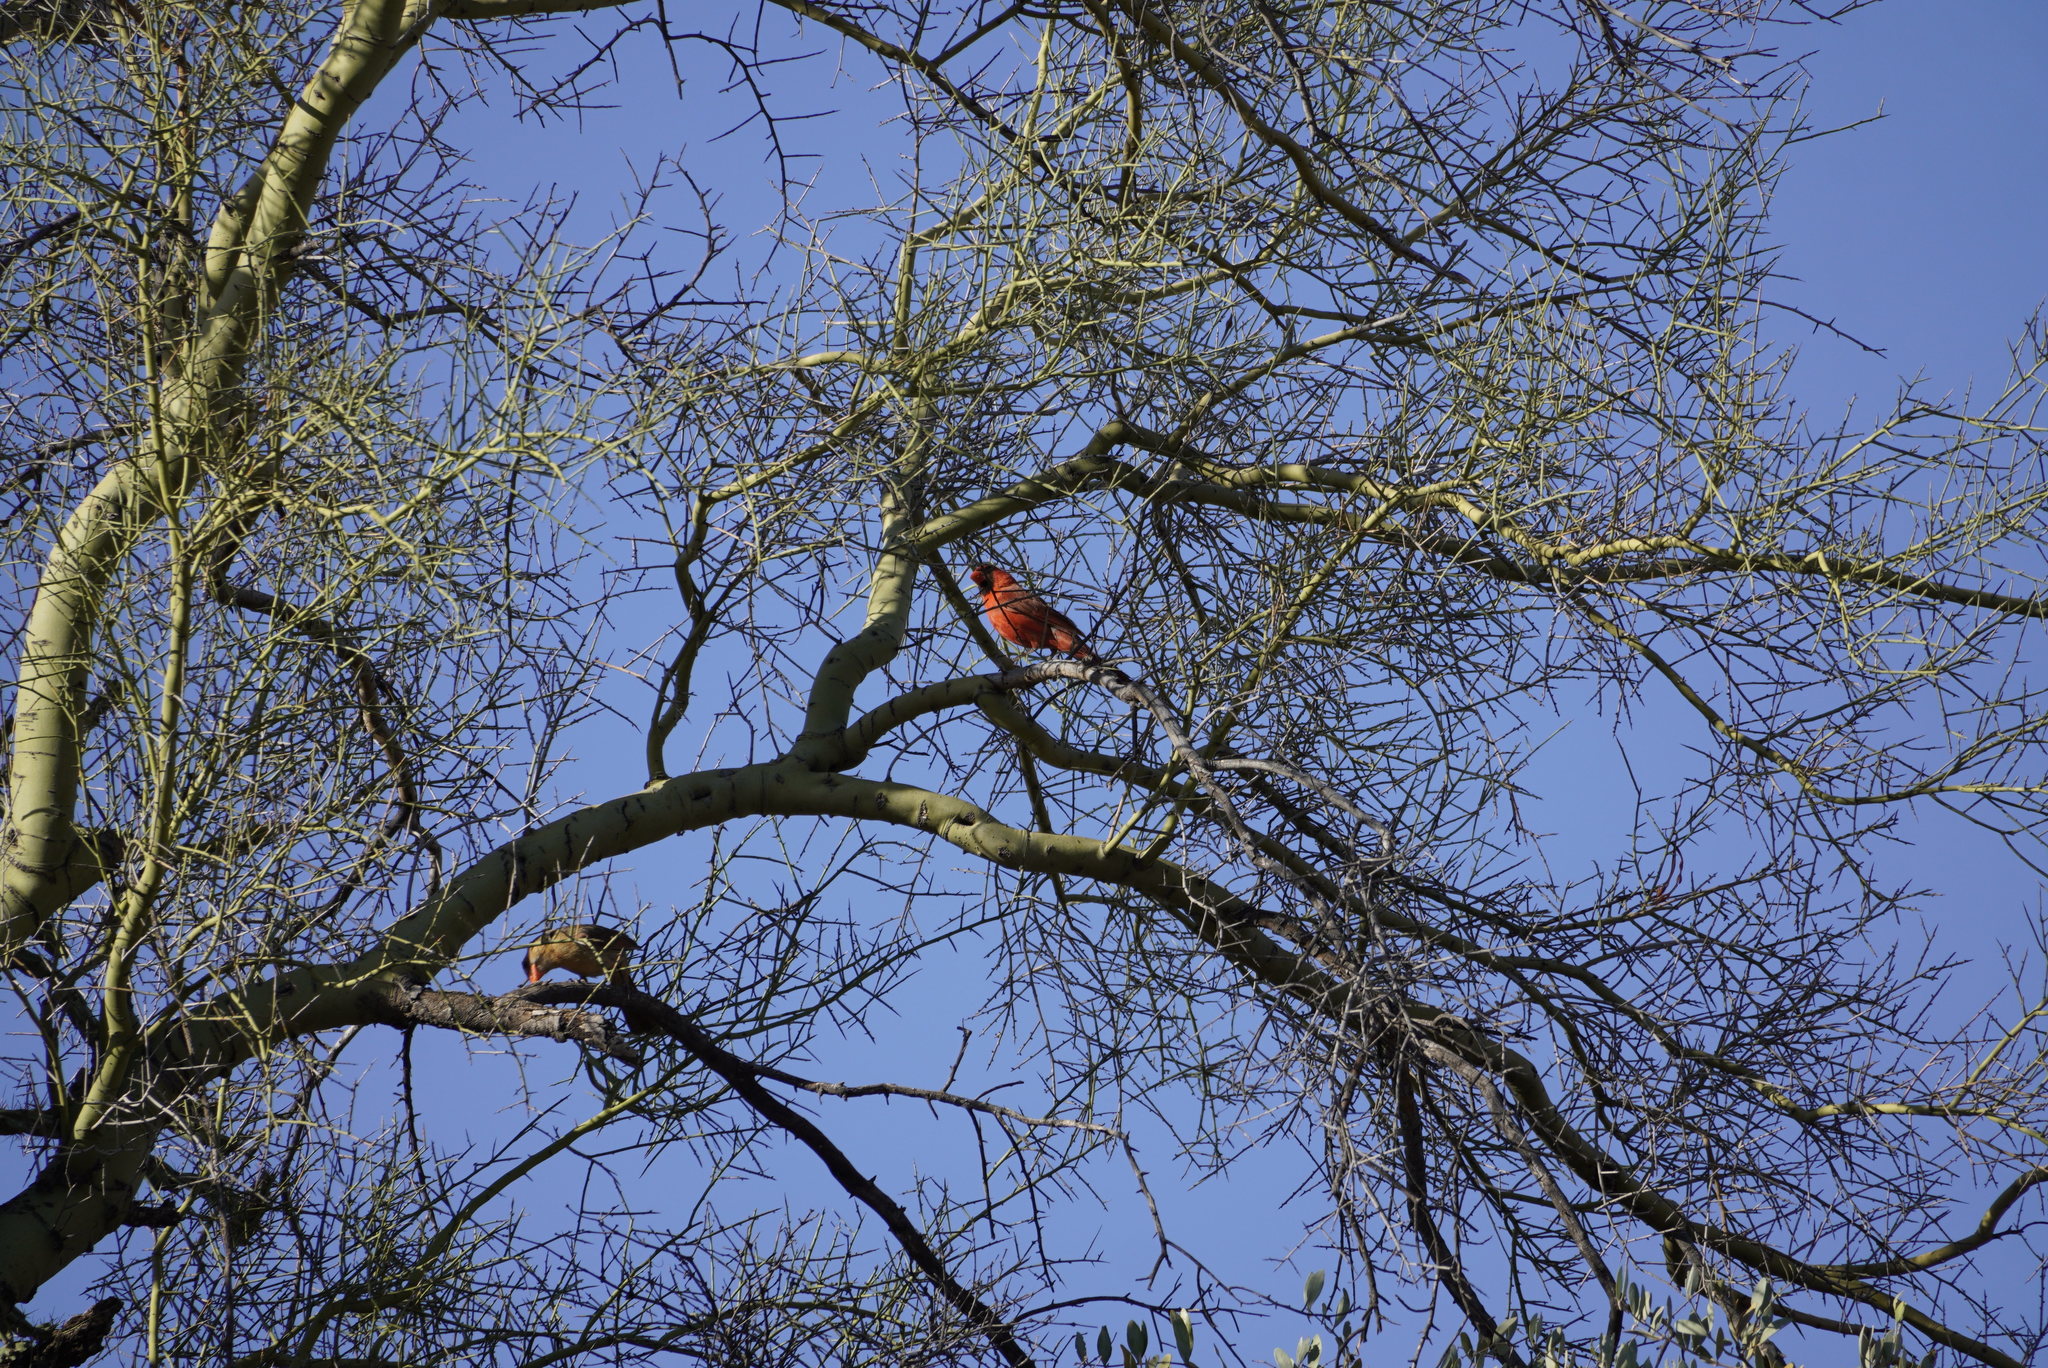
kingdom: Animalia
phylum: Chordata
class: Aves
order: Passeriformes
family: Cardinalidae
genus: Cardinalis
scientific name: Cardinalis cardinalis
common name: Northern cardinal
